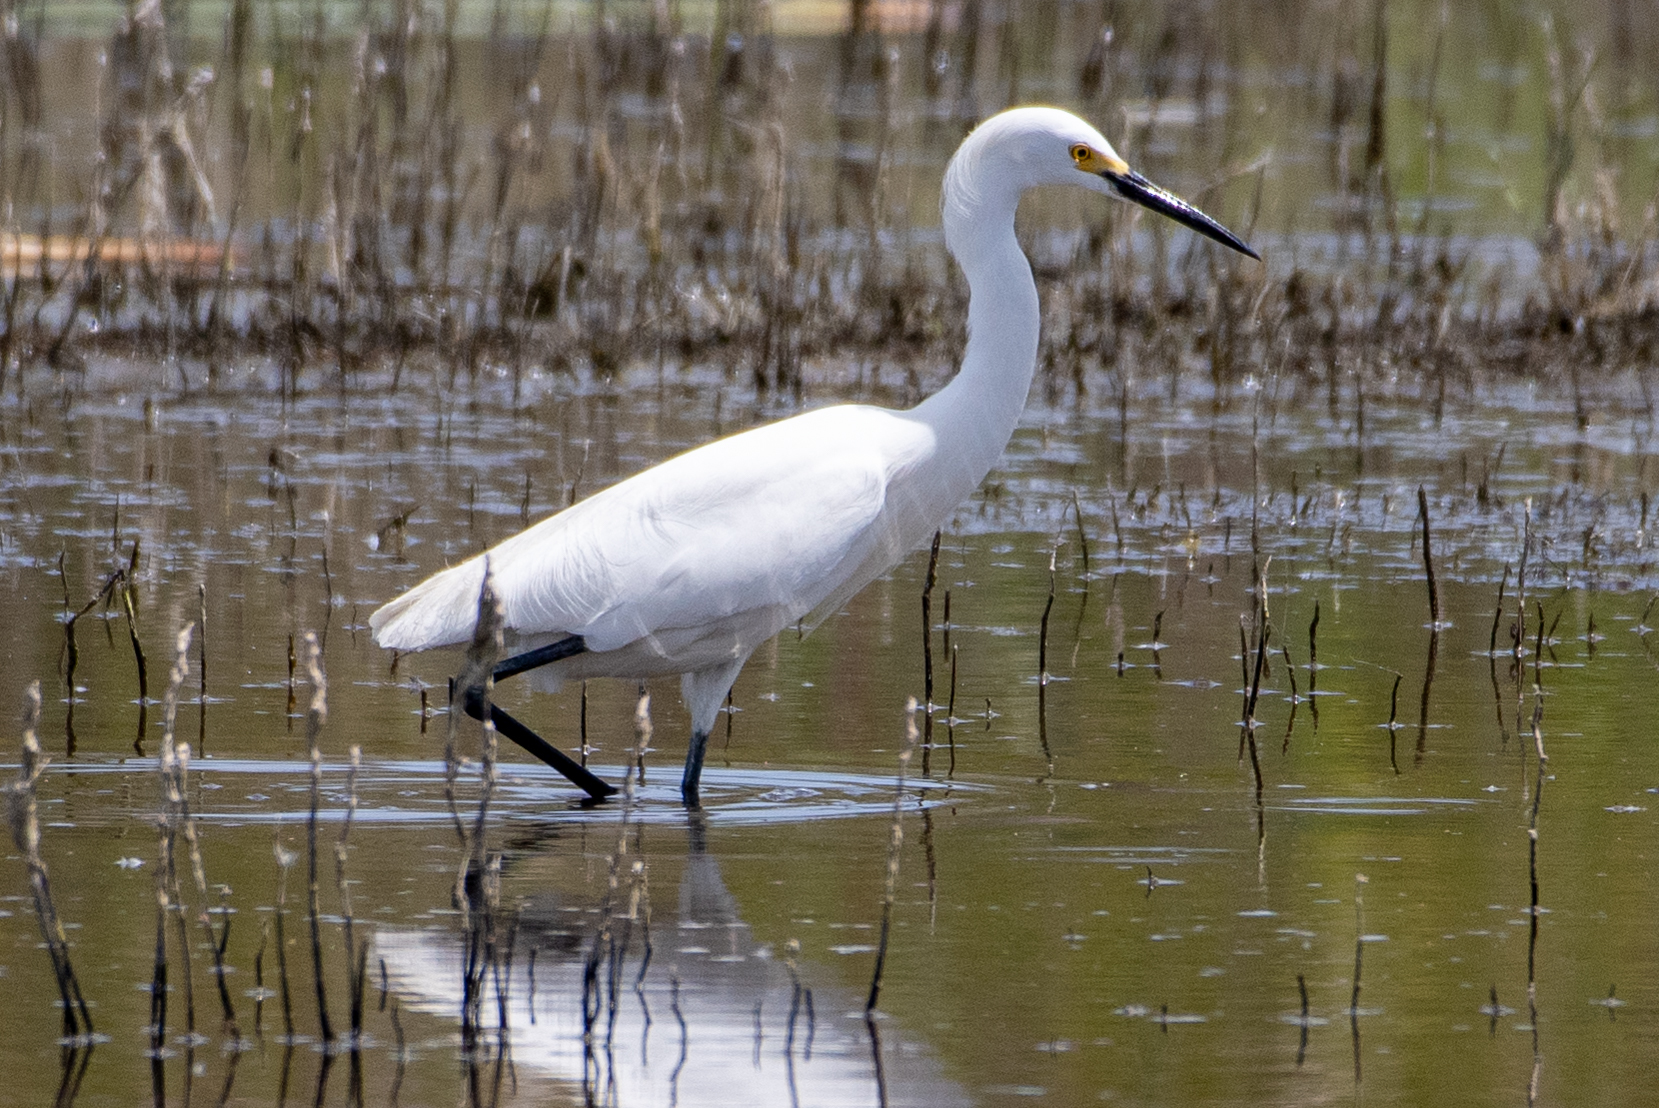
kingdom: Animalia
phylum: Chordata
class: Aves
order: Pelecaniformes
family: Ardeidae
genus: Egretta
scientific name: Egretta thula
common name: Snowy egret
